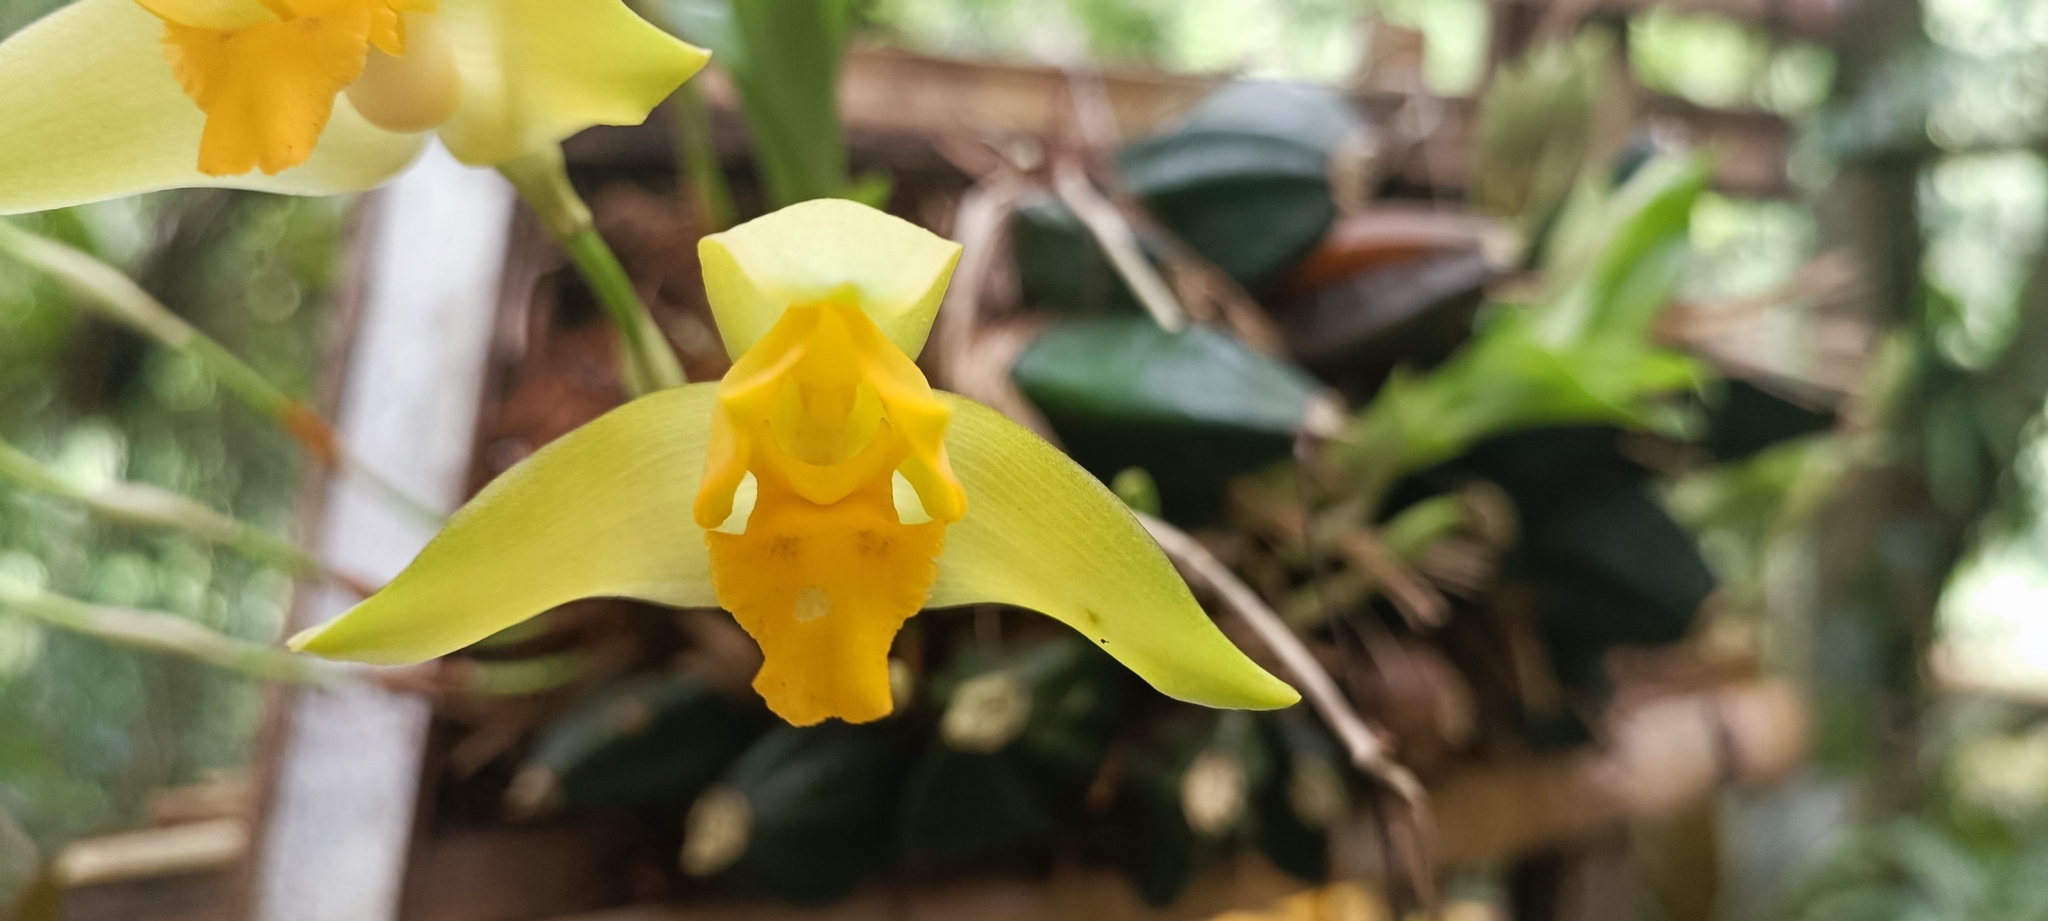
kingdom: Plantae
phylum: Tracheophyta
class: Liliopsida
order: Asparagales
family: Orchidaceae
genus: Lycaste
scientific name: Lycaste aromatica
